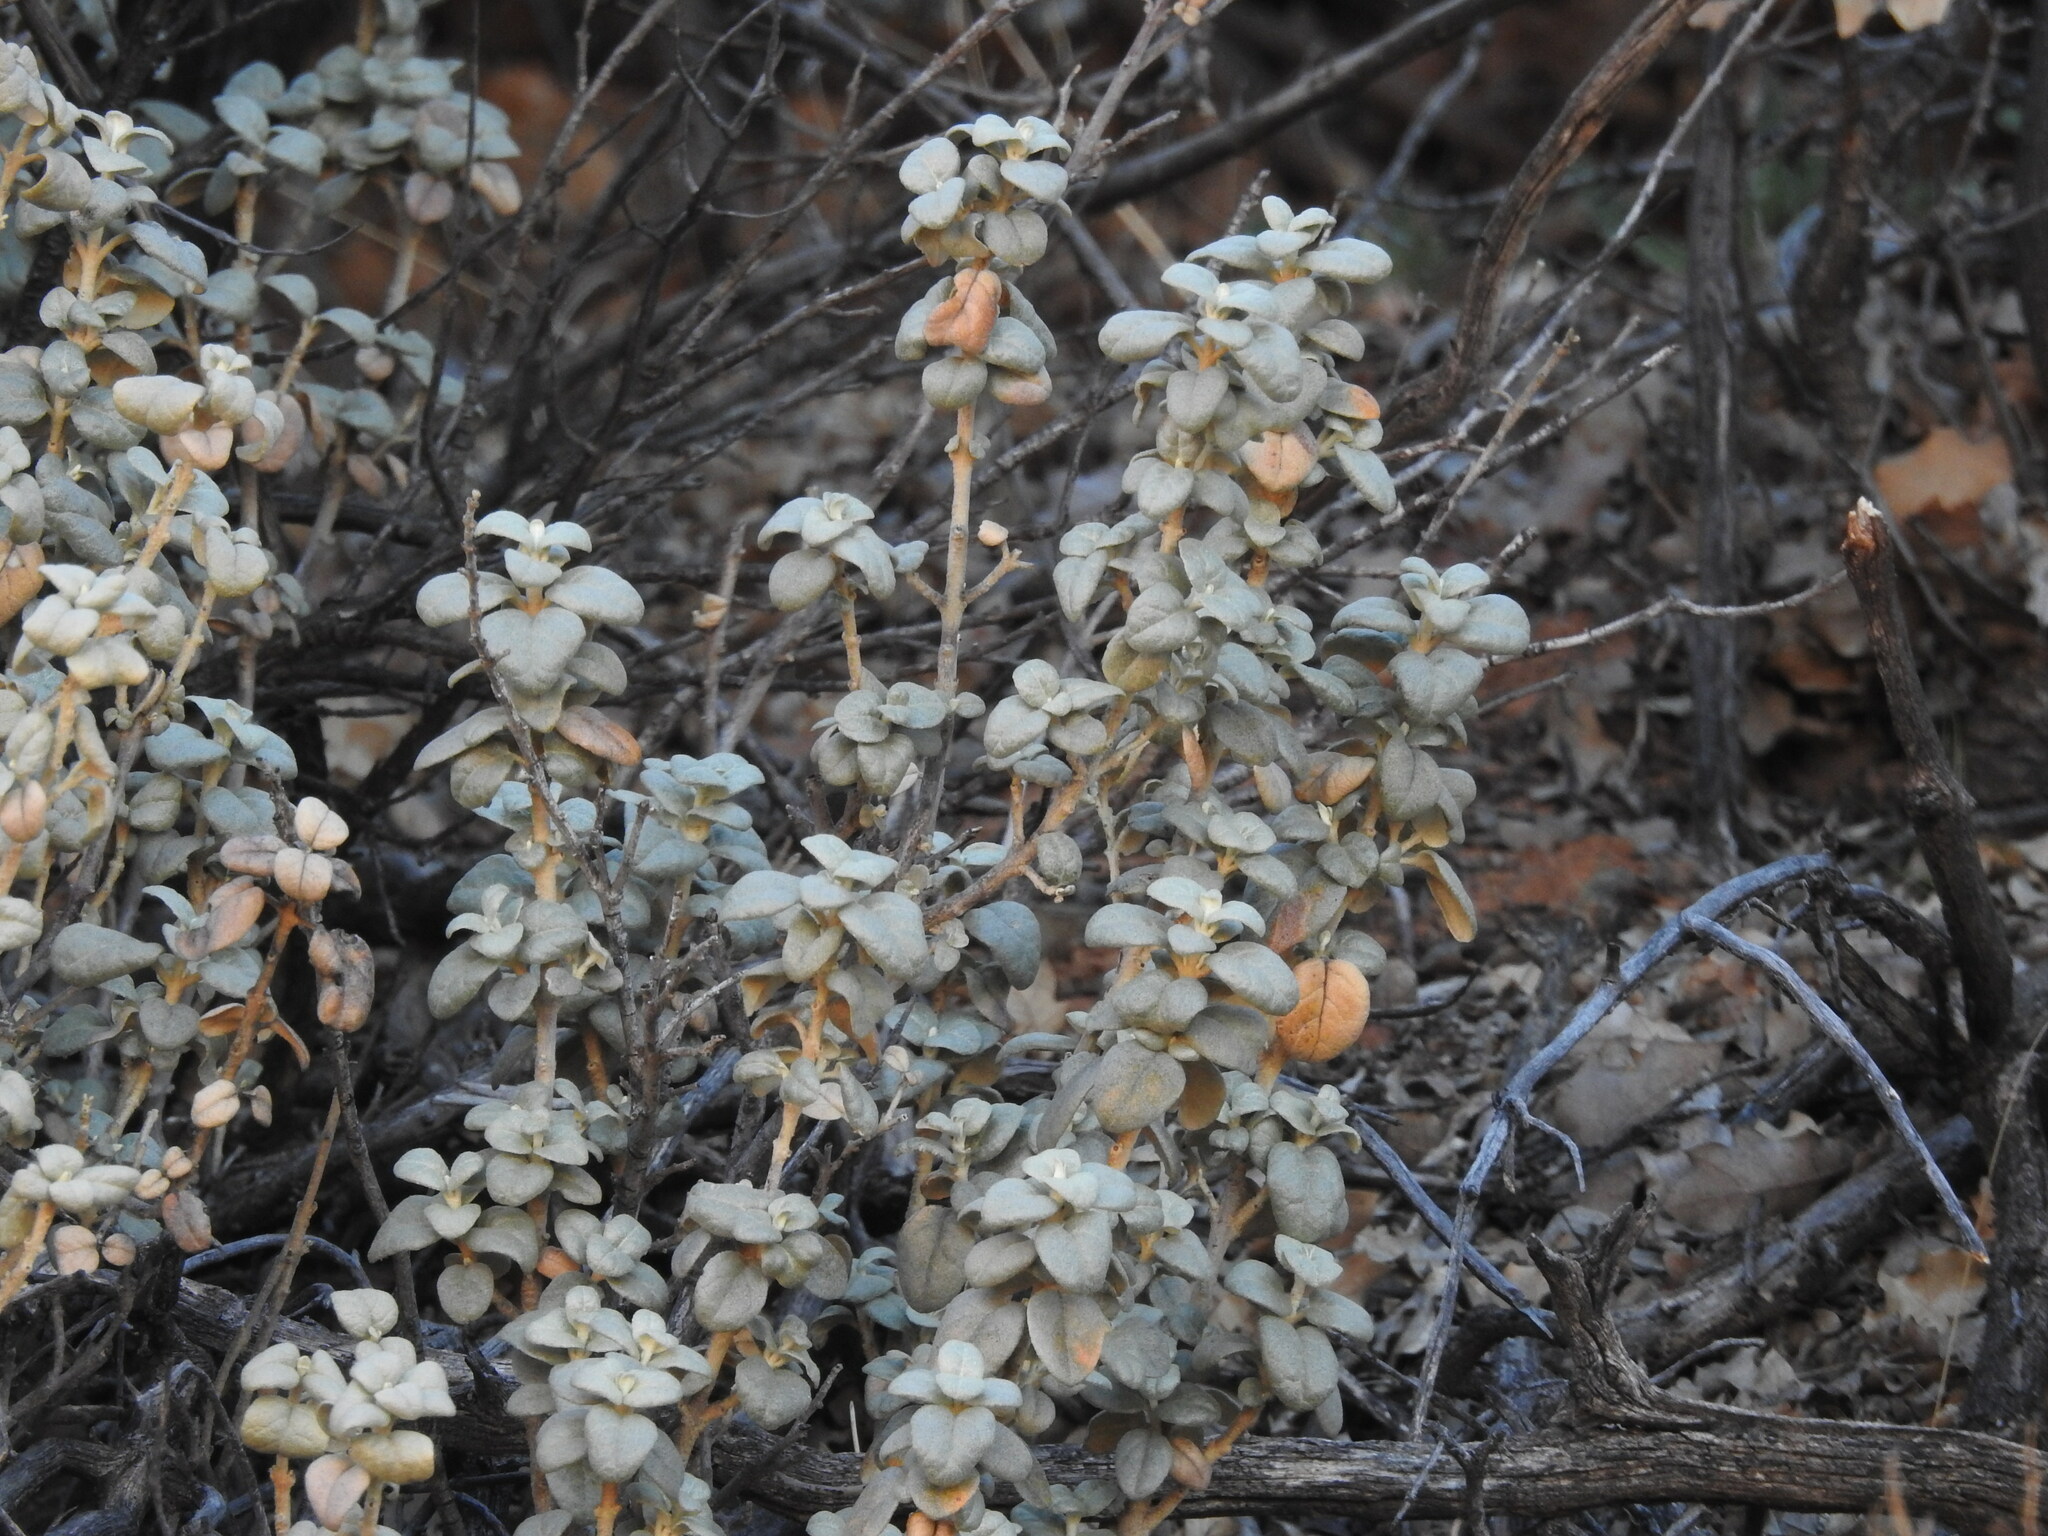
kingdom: Plantae
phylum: Tracheophyta
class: Magnoliopsida
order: Rosales
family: Elaeagnaceae
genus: Shepherdia
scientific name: Shepherdia rotundifolia
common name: Silverscale
